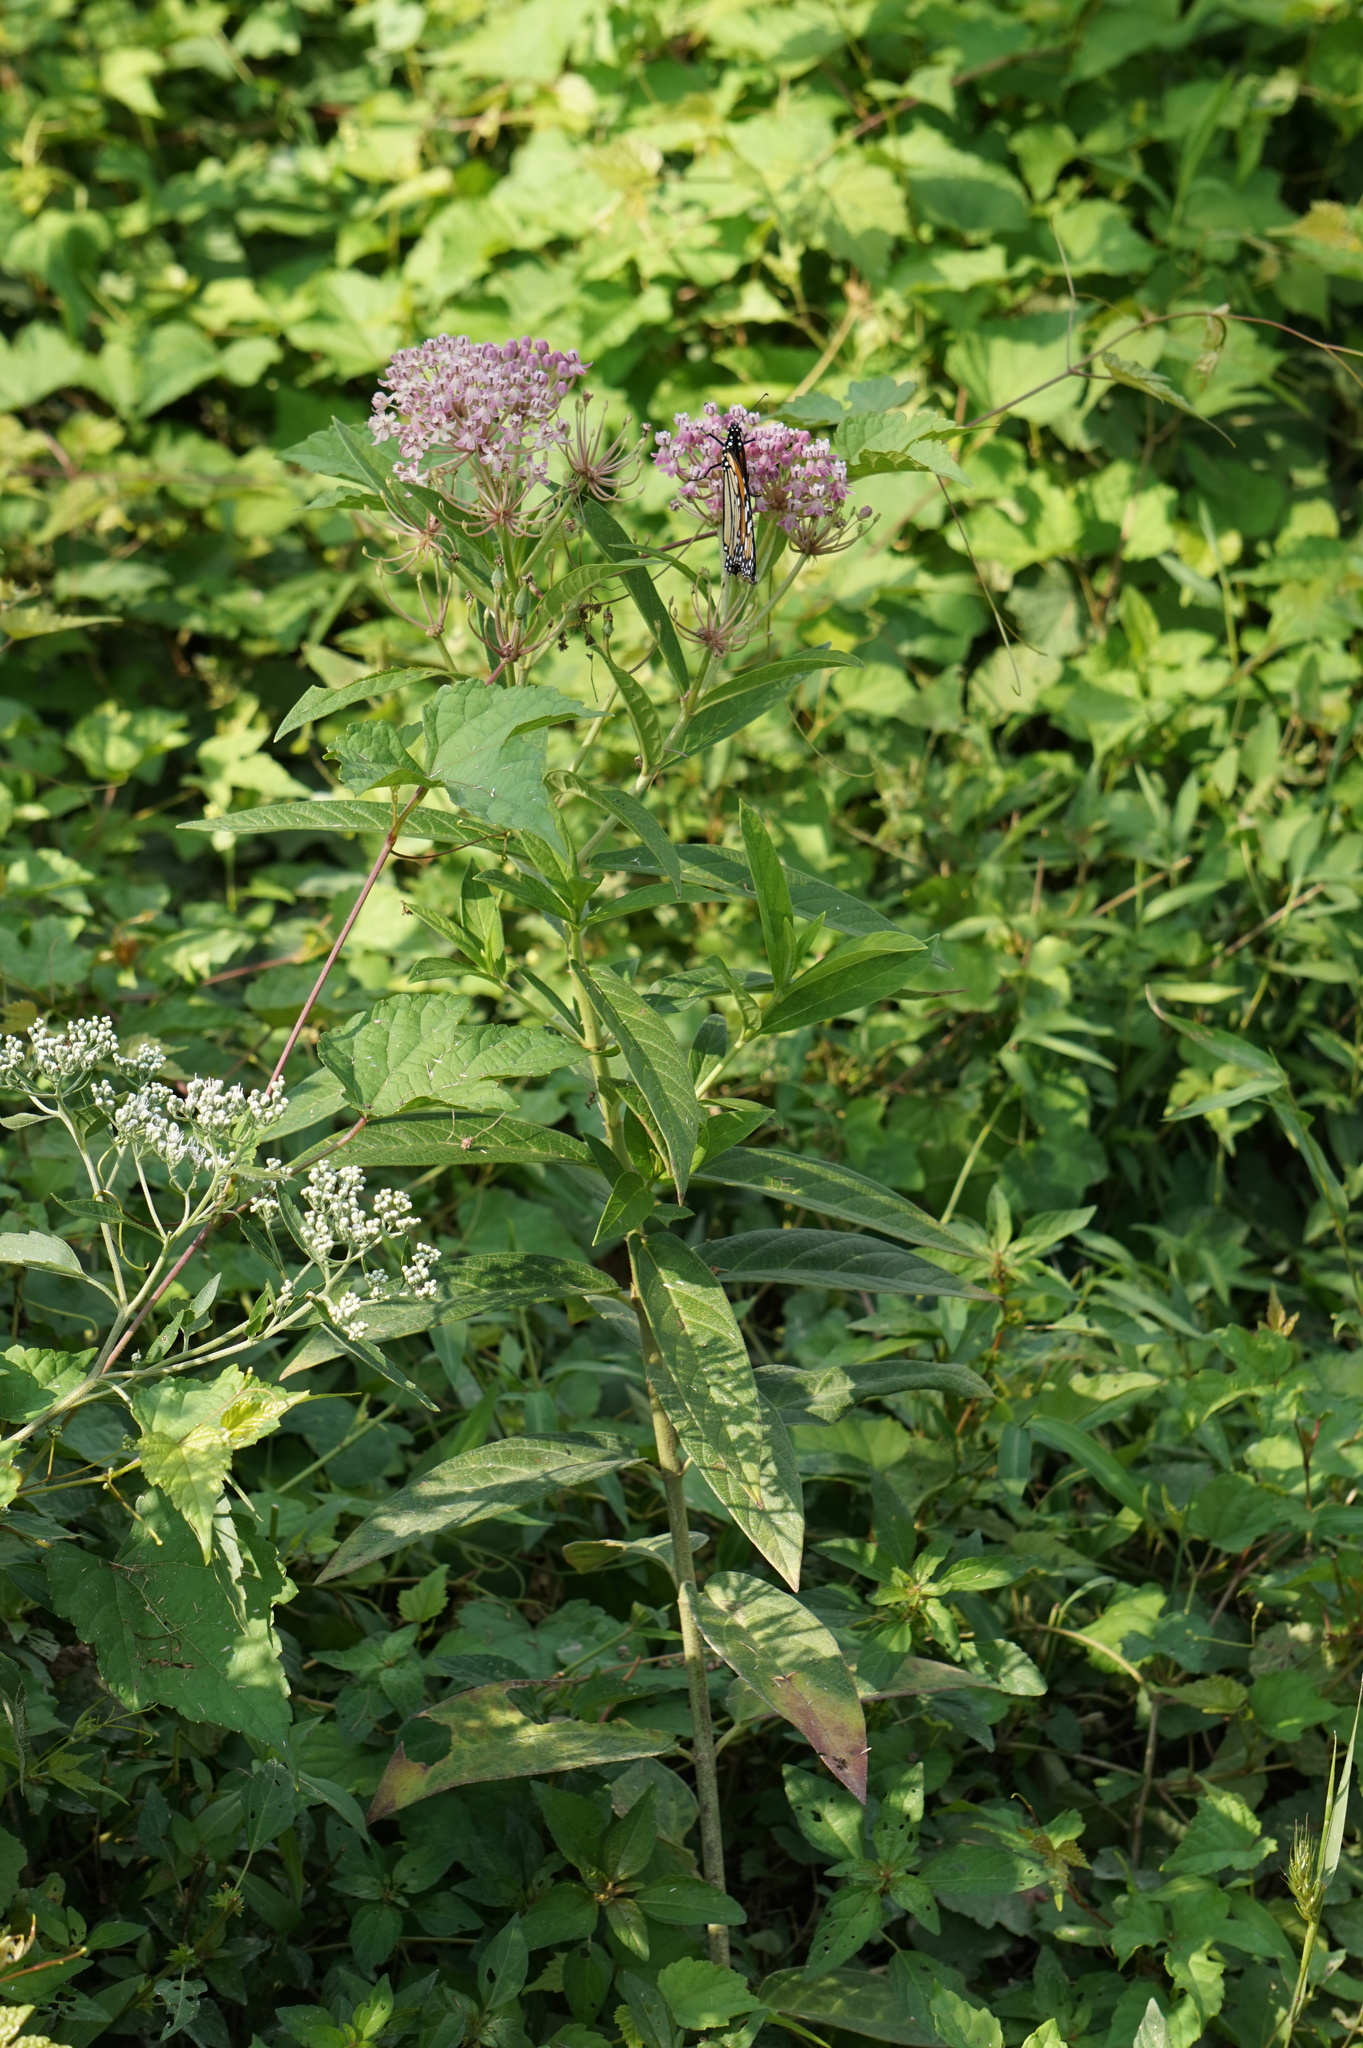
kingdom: Plantae
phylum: Tracheophyta
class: Magnoliopsida
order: Gentianales
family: Apocynaceae
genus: Asclepias
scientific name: Asclepias incarnata
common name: Swamp milkweed
